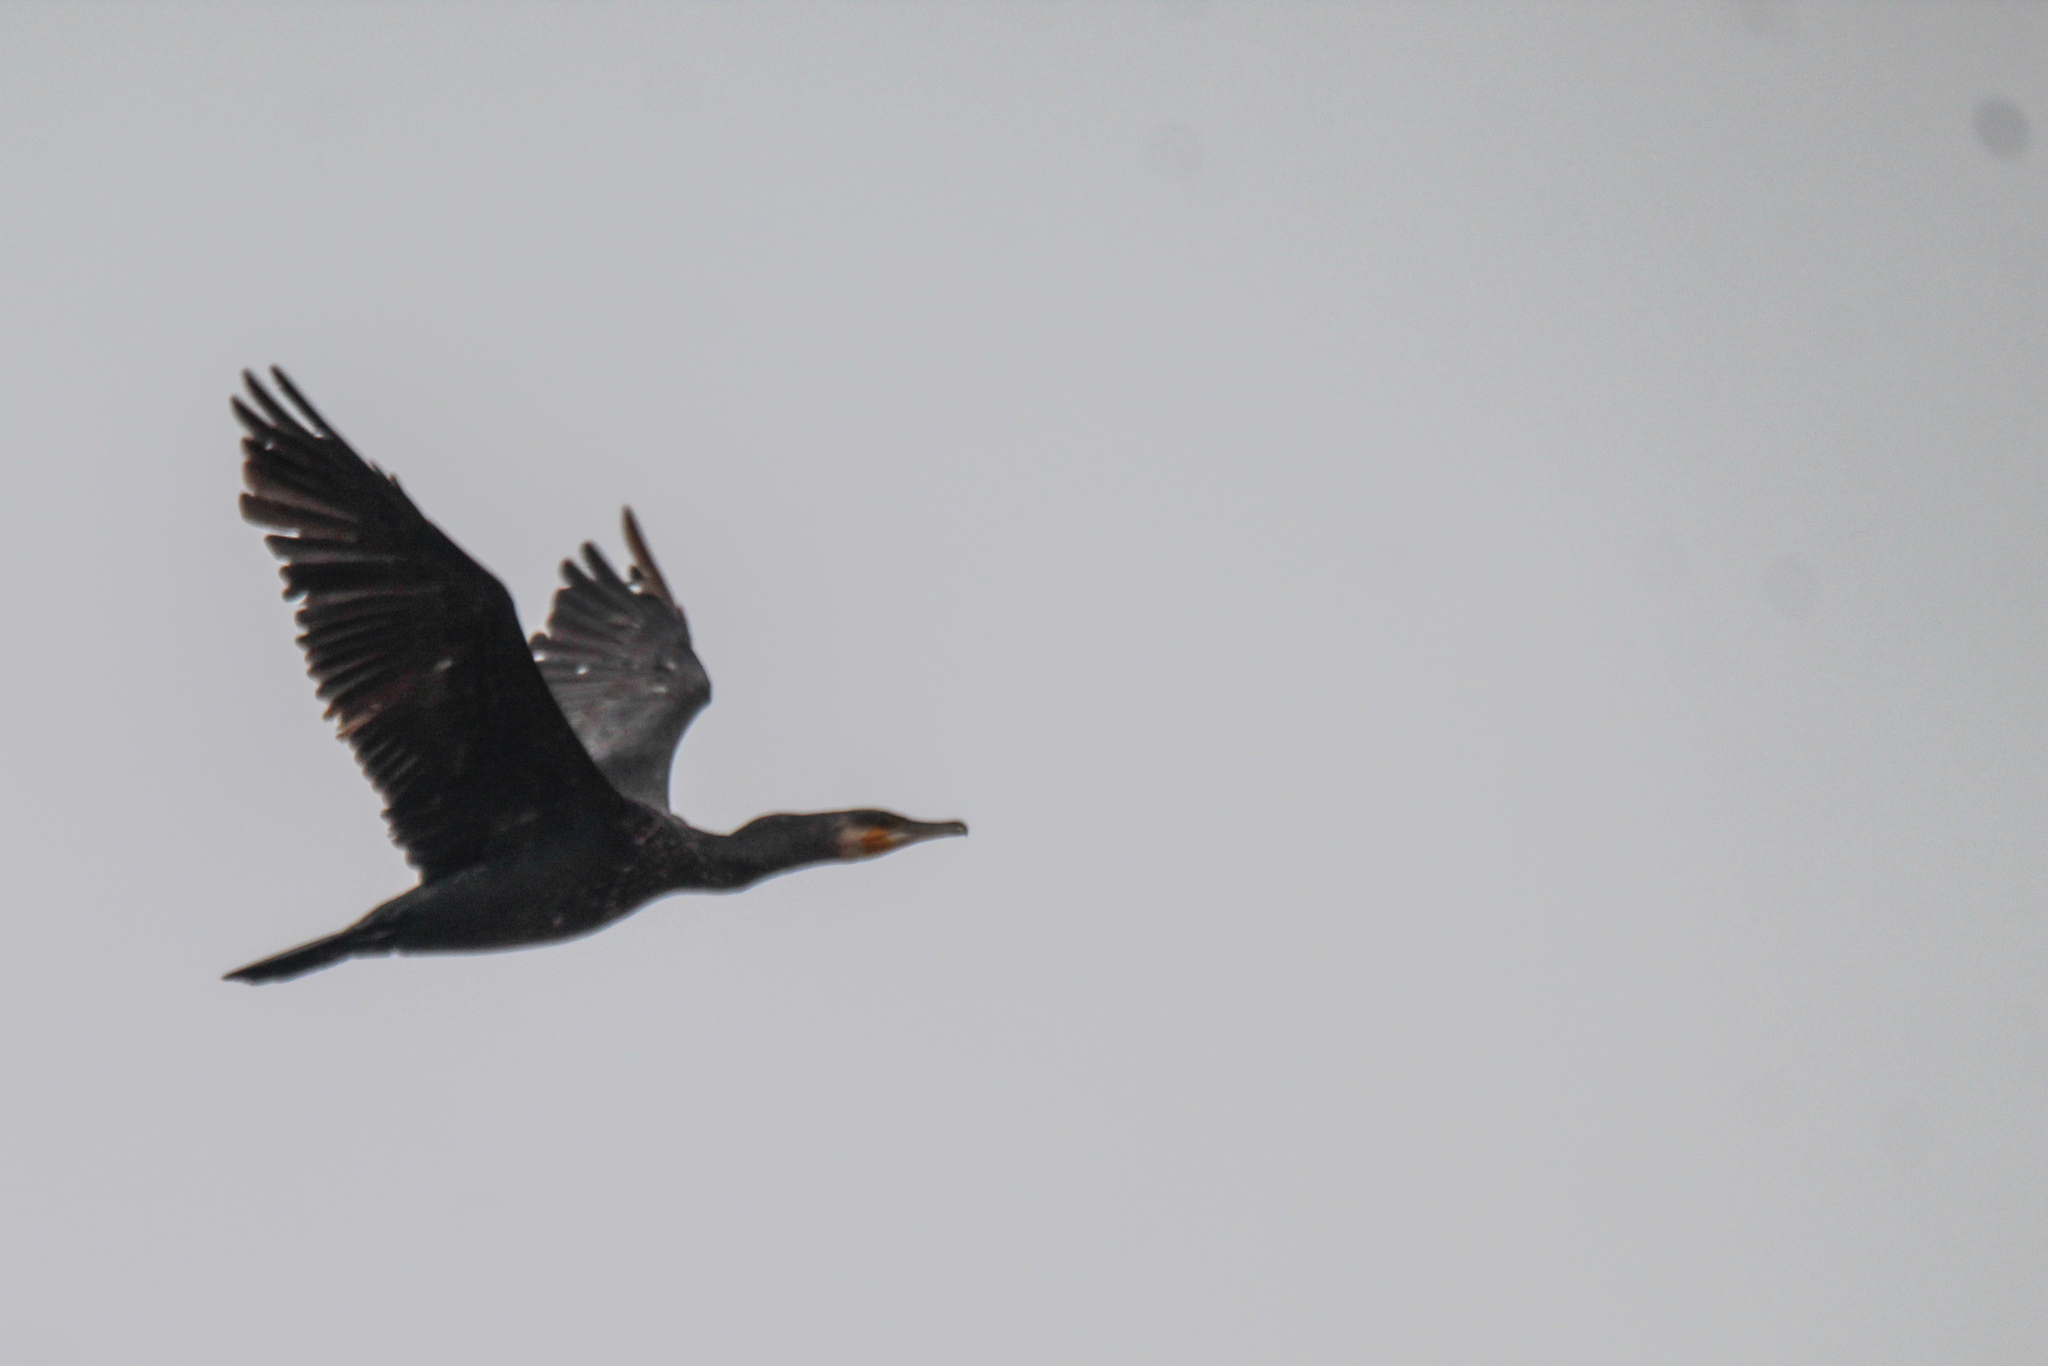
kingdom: Animalia
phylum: Chordata
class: Aves
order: Suliformes
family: Phalacrocoracidae
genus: Phalacrocorax
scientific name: Phalacrocorax carbo
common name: Great cormorant
